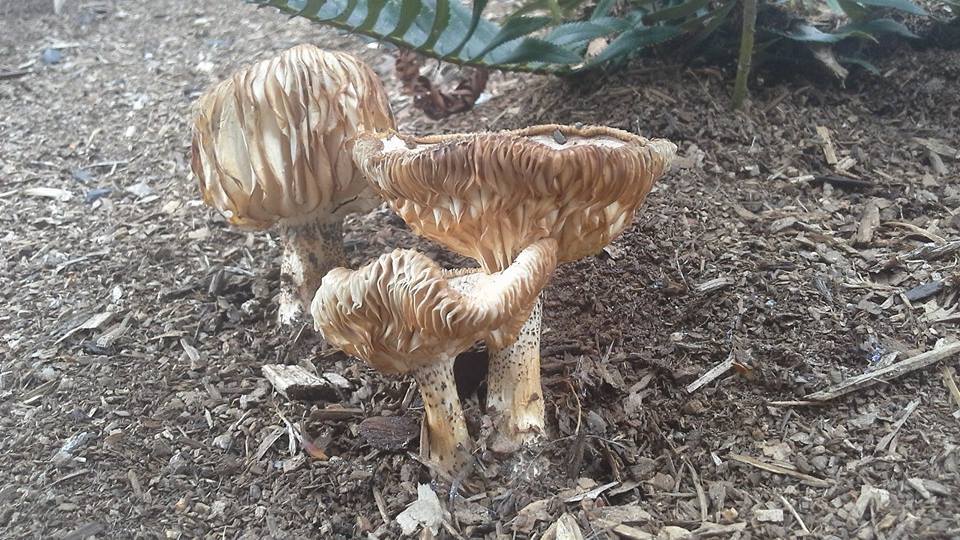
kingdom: Fungi
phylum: Basidiomycota
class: Agaricomycetes
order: Agaricales
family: Tricholomataceae
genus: Melanoleuca
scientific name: Melanoleuca verrucipes
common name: Warty cavalier
